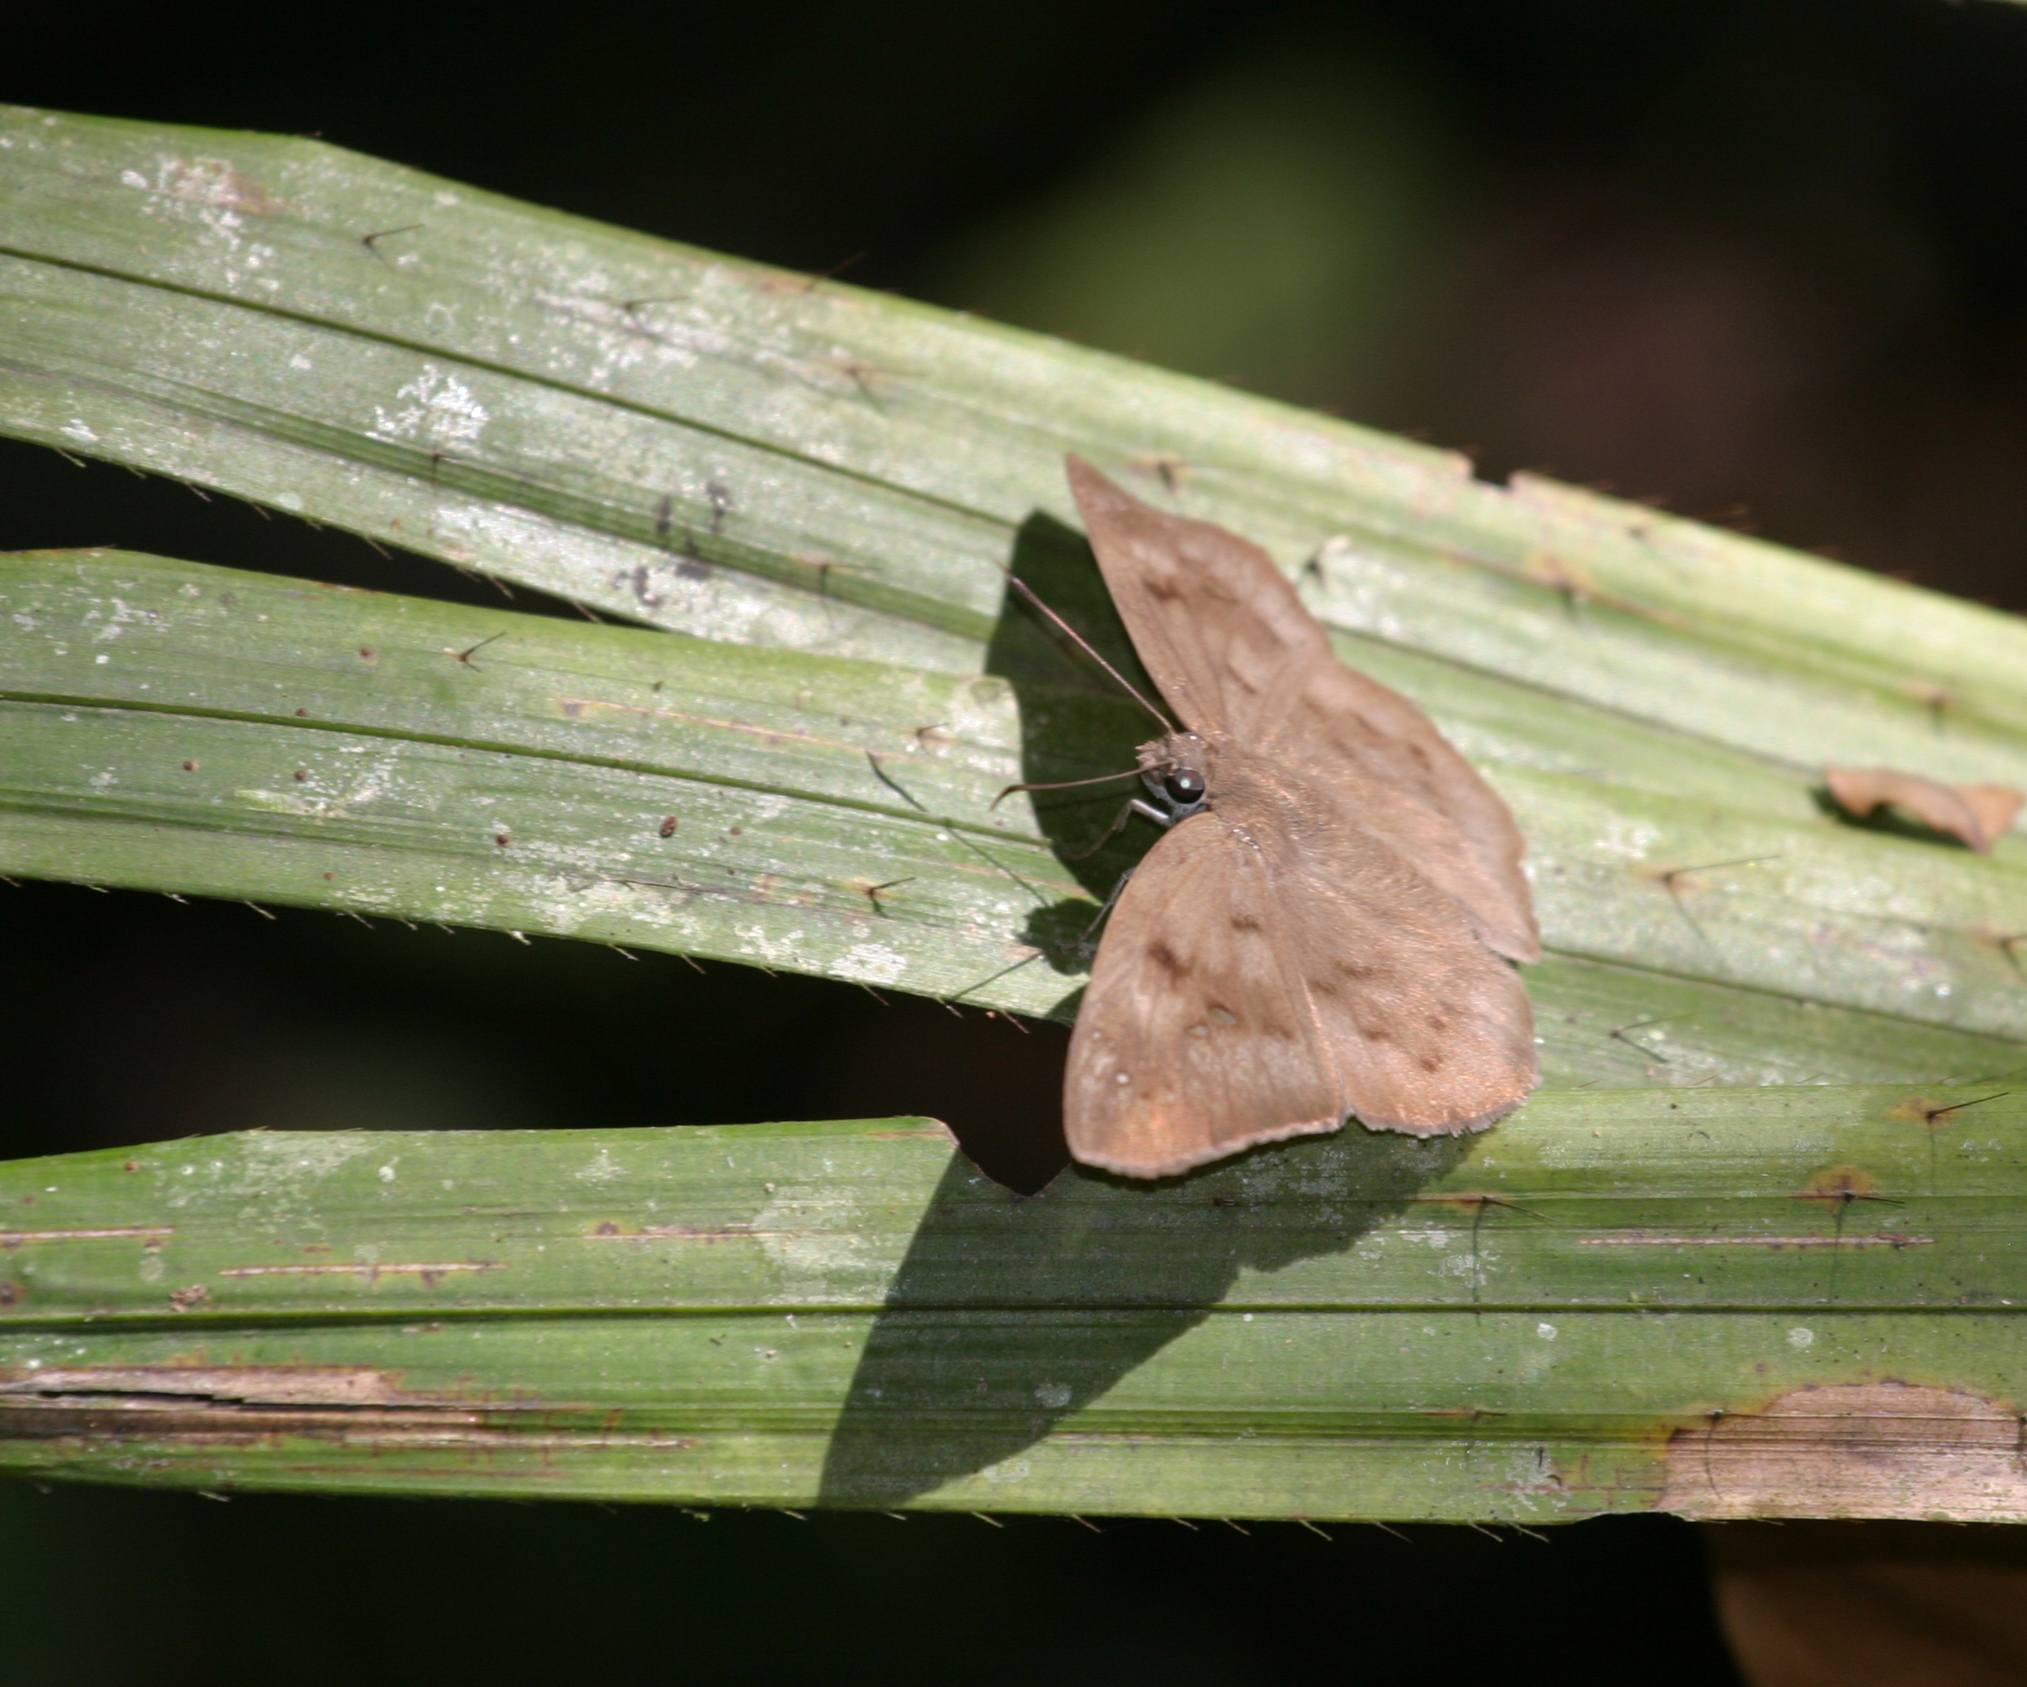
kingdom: Animalia
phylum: Arthropoda
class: Insecta
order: Lepidoptera
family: Hesperiidae
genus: Tagiades
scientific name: Tagiades japetus
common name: Pied flat
